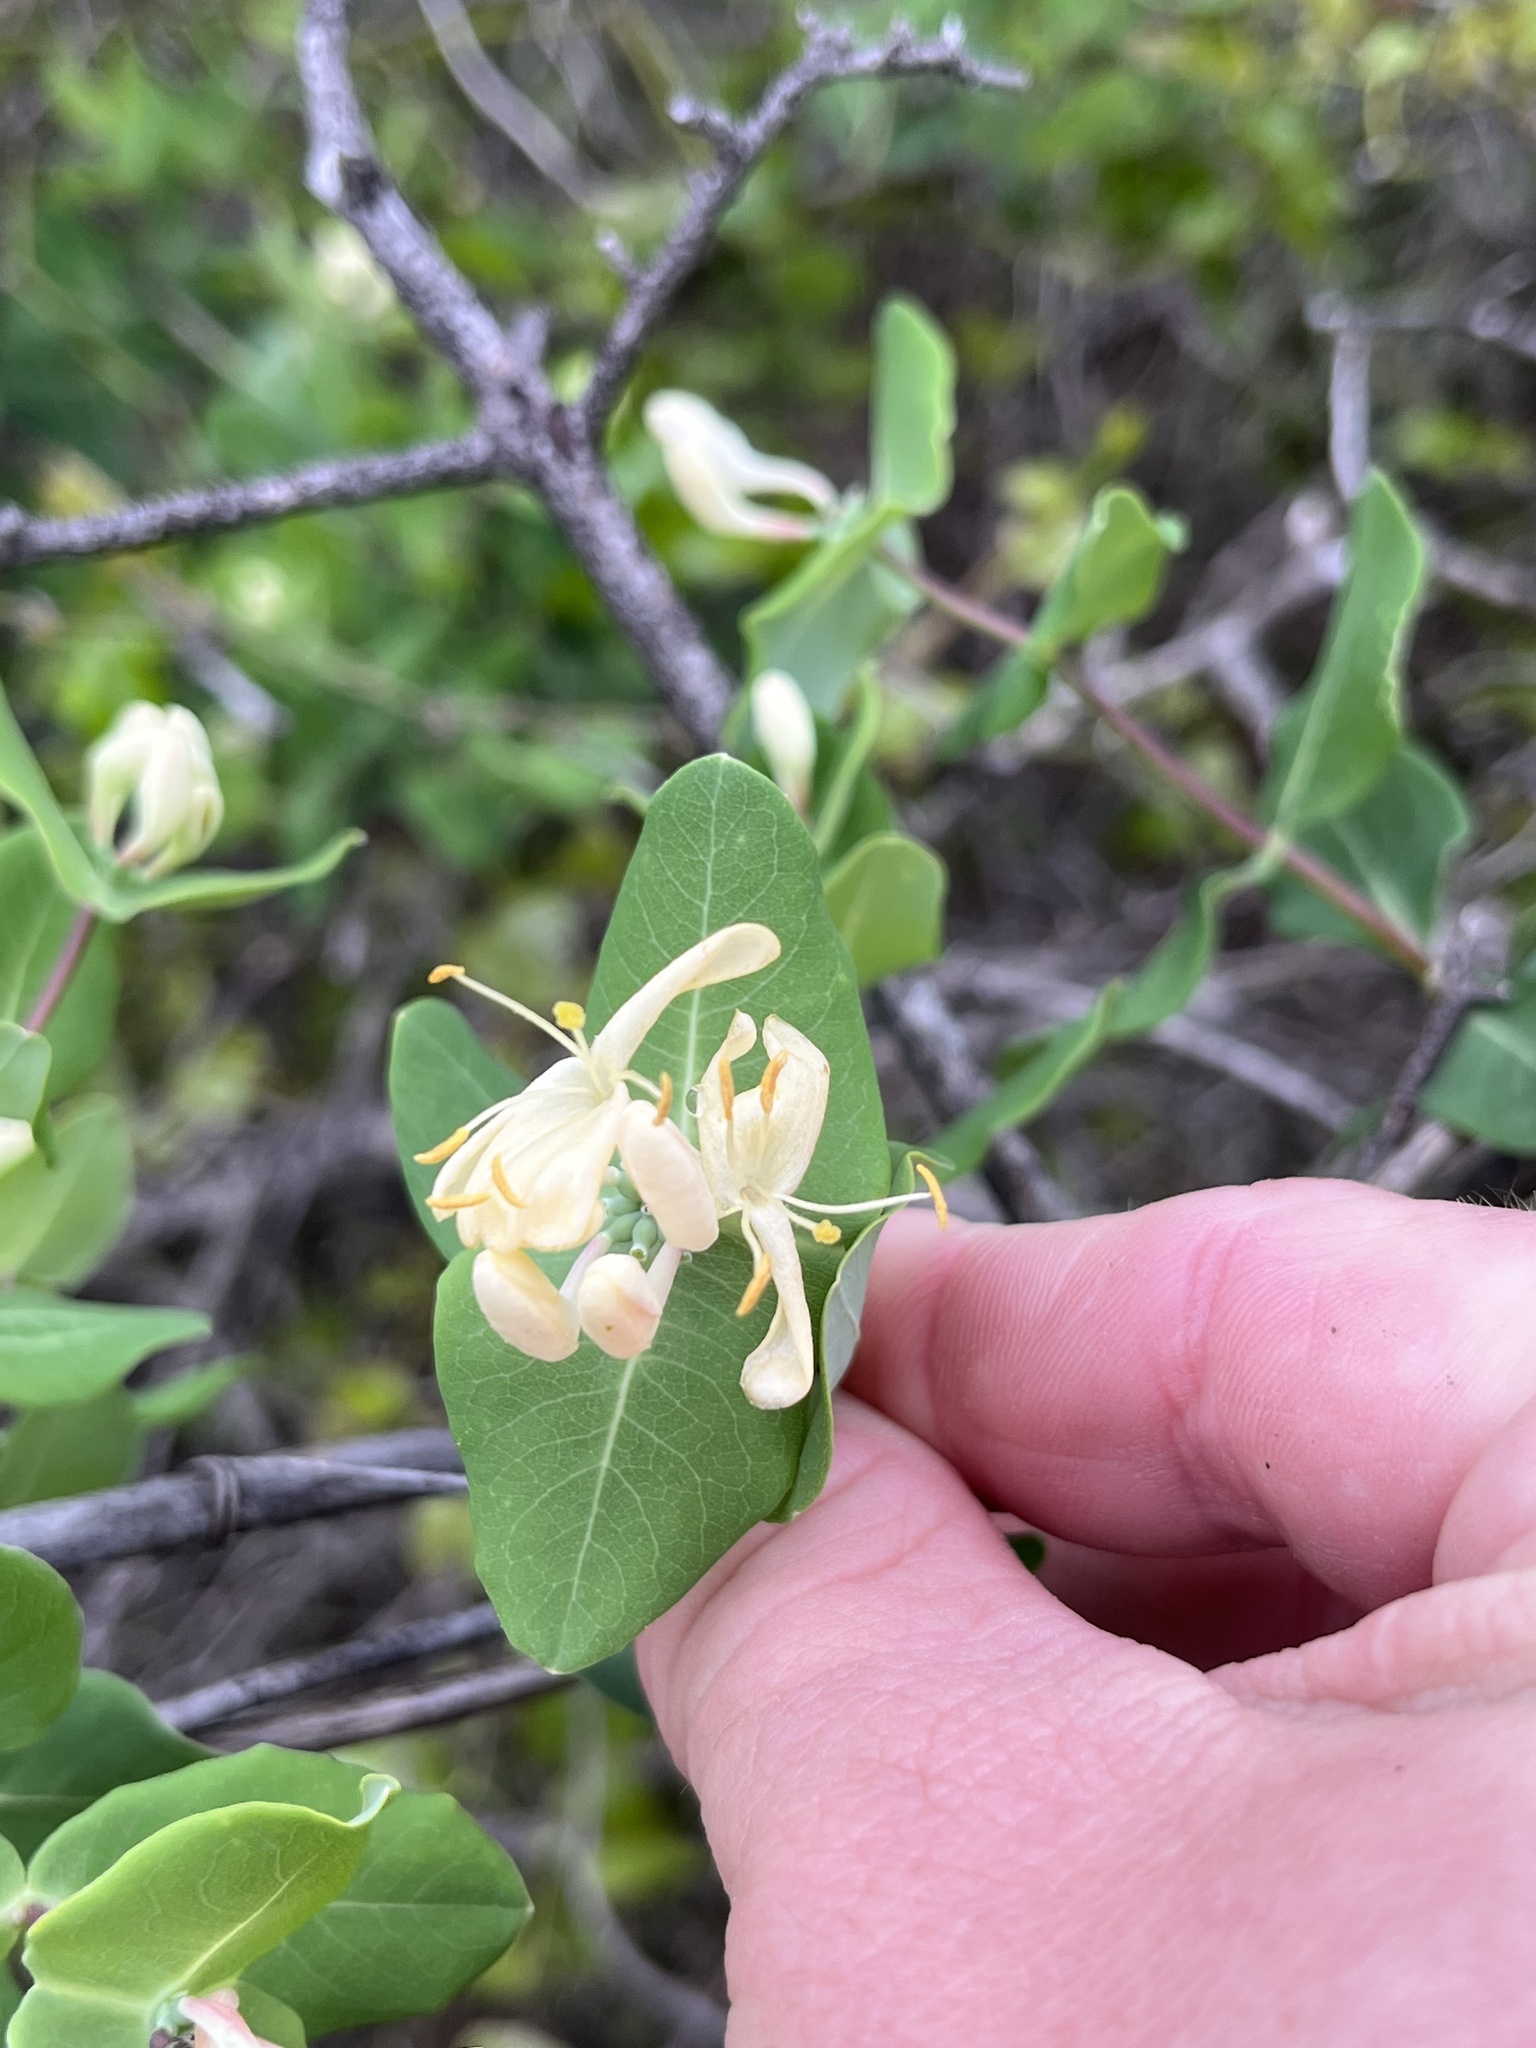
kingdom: Plantae
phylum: Tracheophyta
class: Magnoliopsida
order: Dipsacales
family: Caprifoliaceae
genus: Lonicera
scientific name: Lonicera albiflora
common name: White honeysuckle
